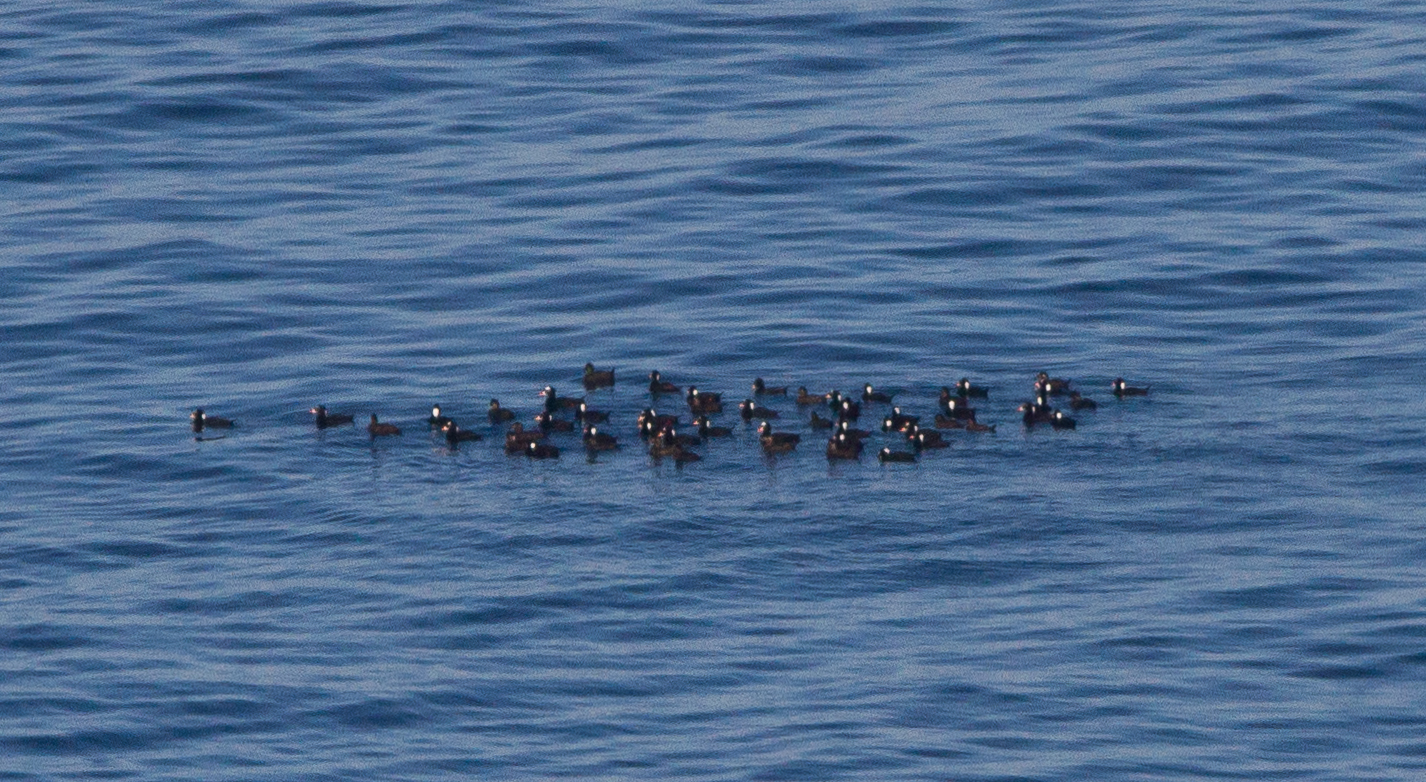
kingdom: Animalia
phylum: Chordata
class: Aves
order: Anseriformes
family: Anatidae
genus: Melanitta
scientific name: Melanitta perspicillata
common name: Surf scoter
